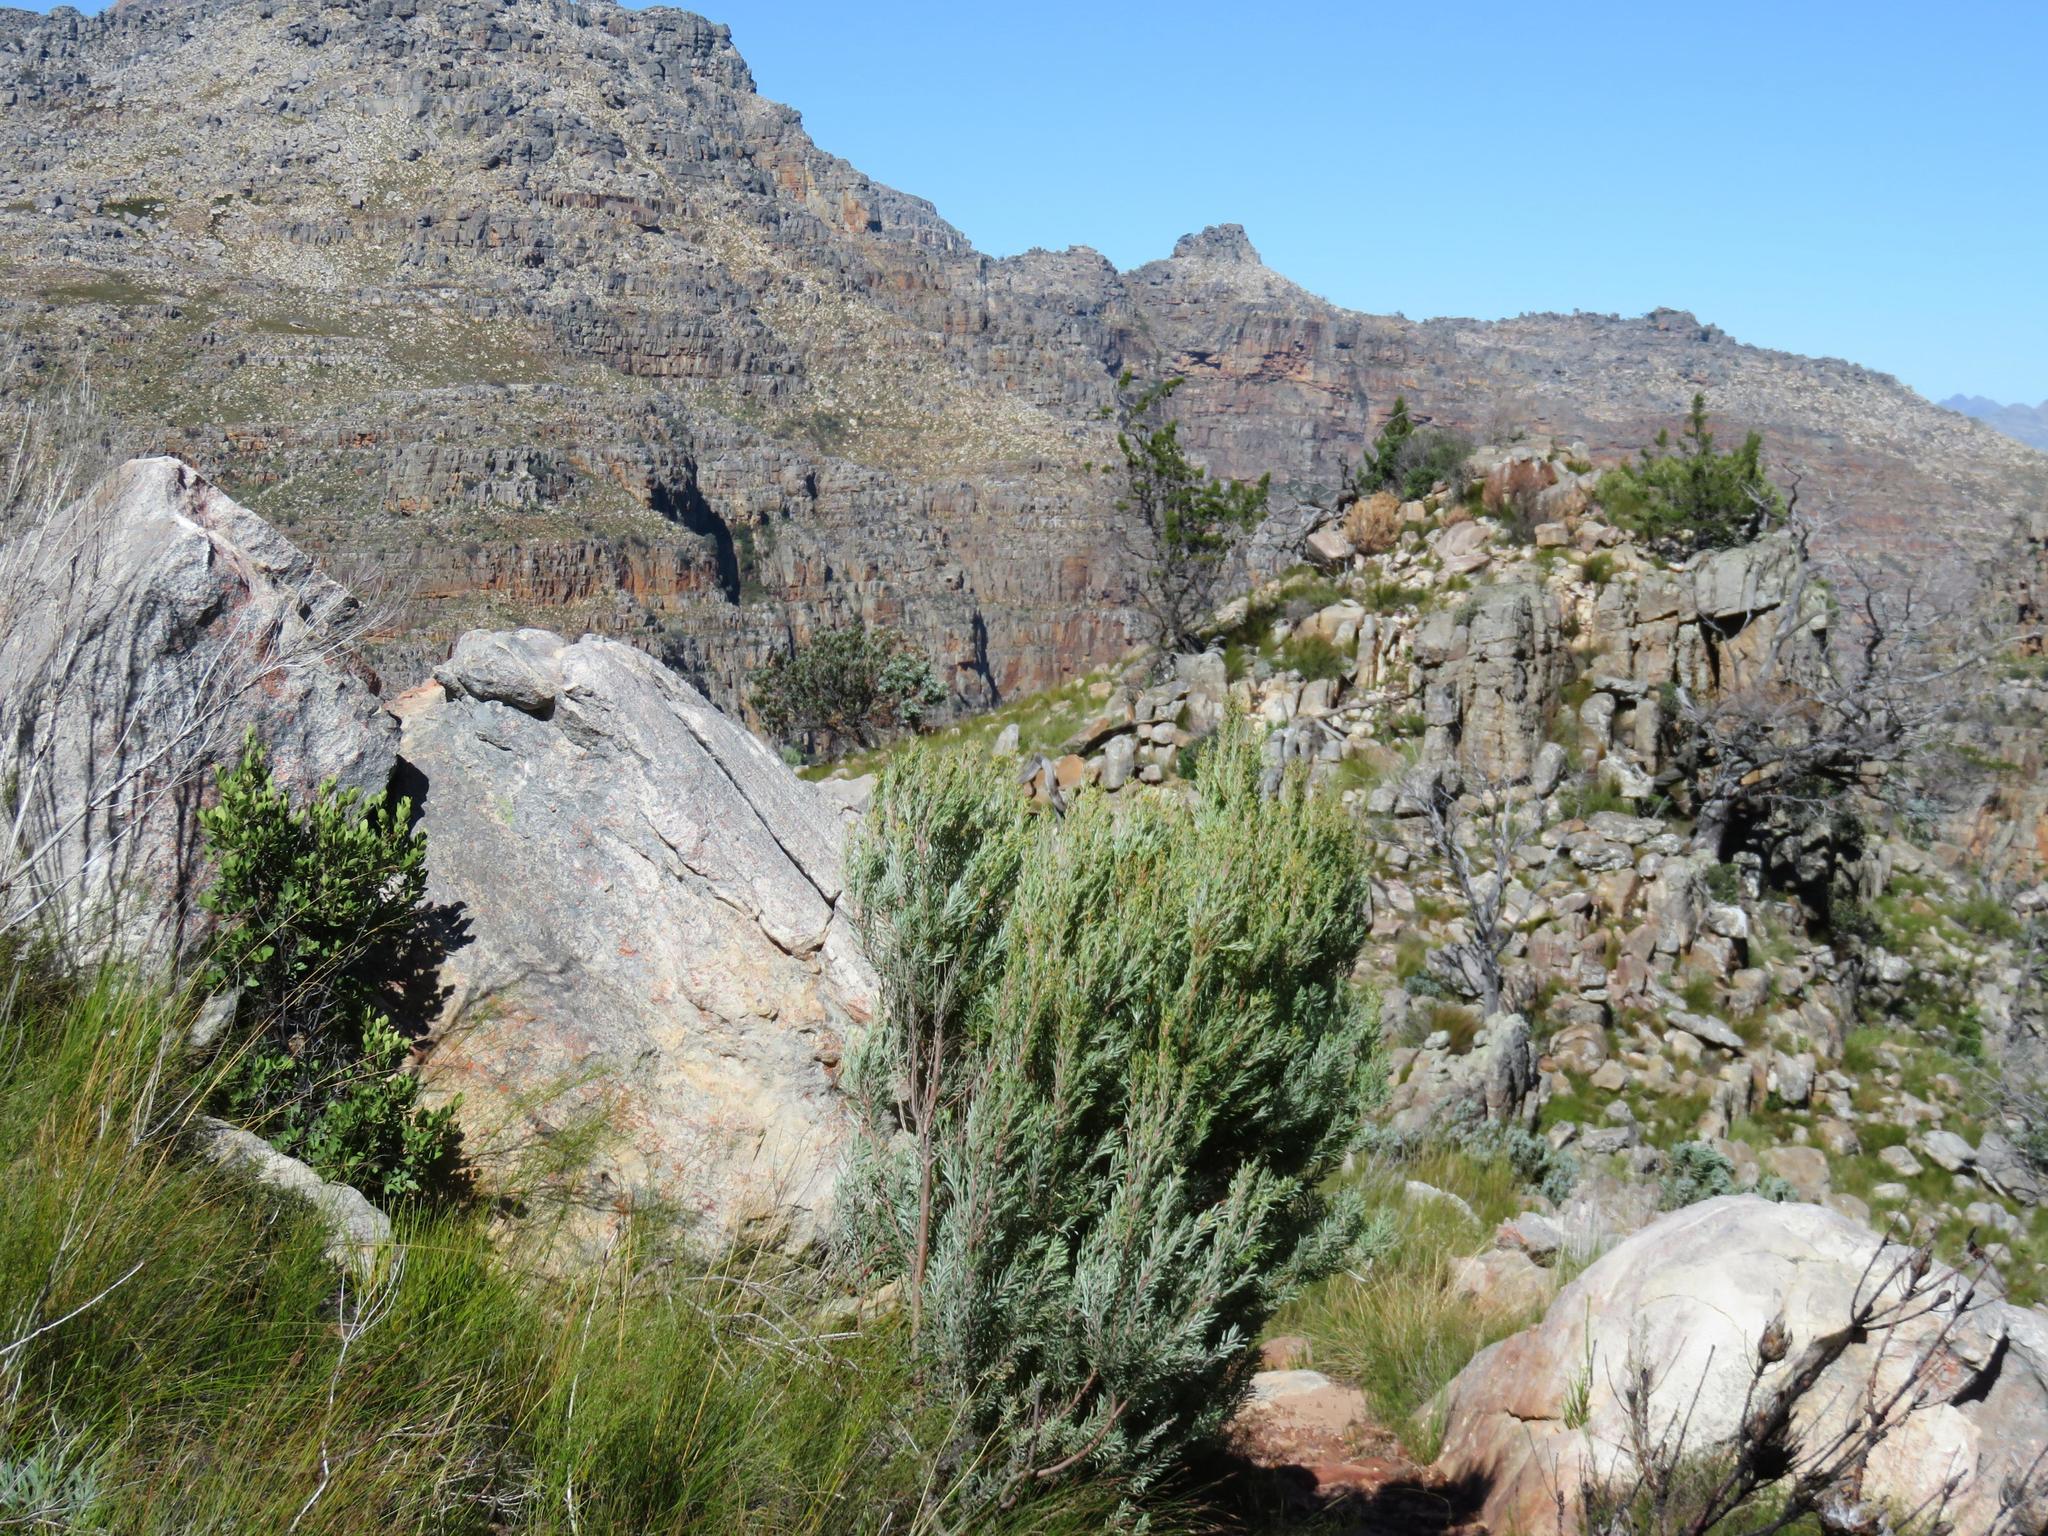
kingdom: Plantae
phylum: Tracheophyta
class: Magnoliopsida
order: Proteales
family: Proteaceae
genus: Leucadendron
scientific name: Leucadendron rubrum
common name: Spinning top
